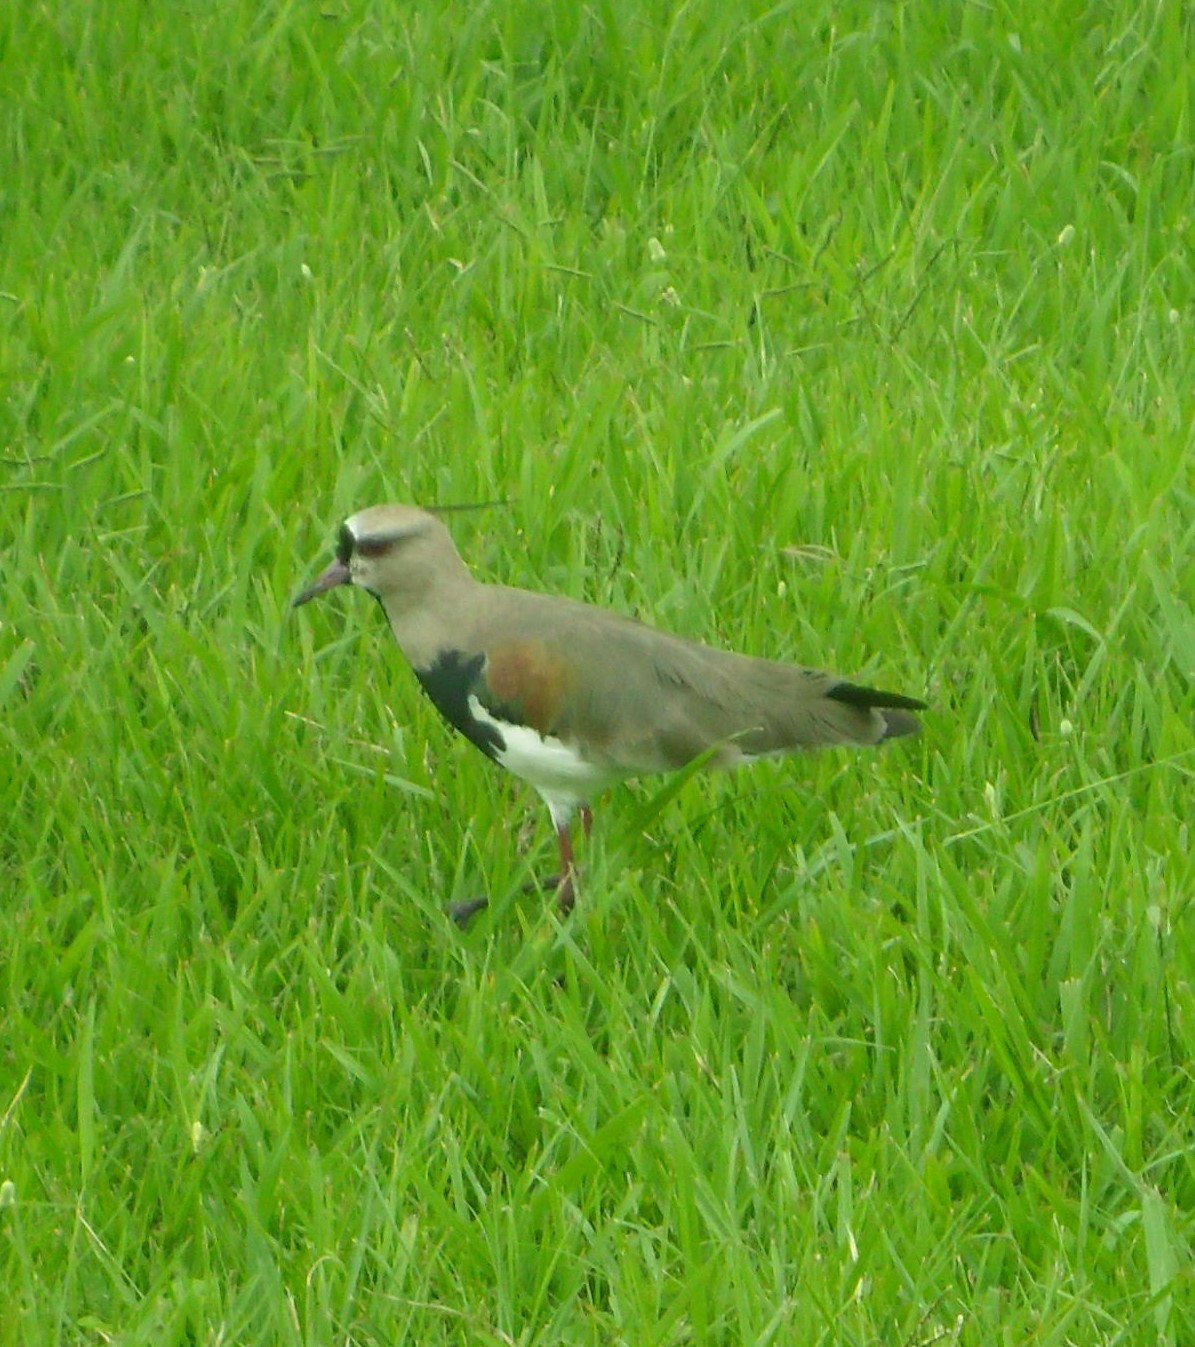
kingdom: Animalia
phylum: Chordata
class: Aves
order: Charadriiformes
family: Charadriidae
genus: Vanellus
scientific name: Vanellus chilensis
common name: Southern lapwing
